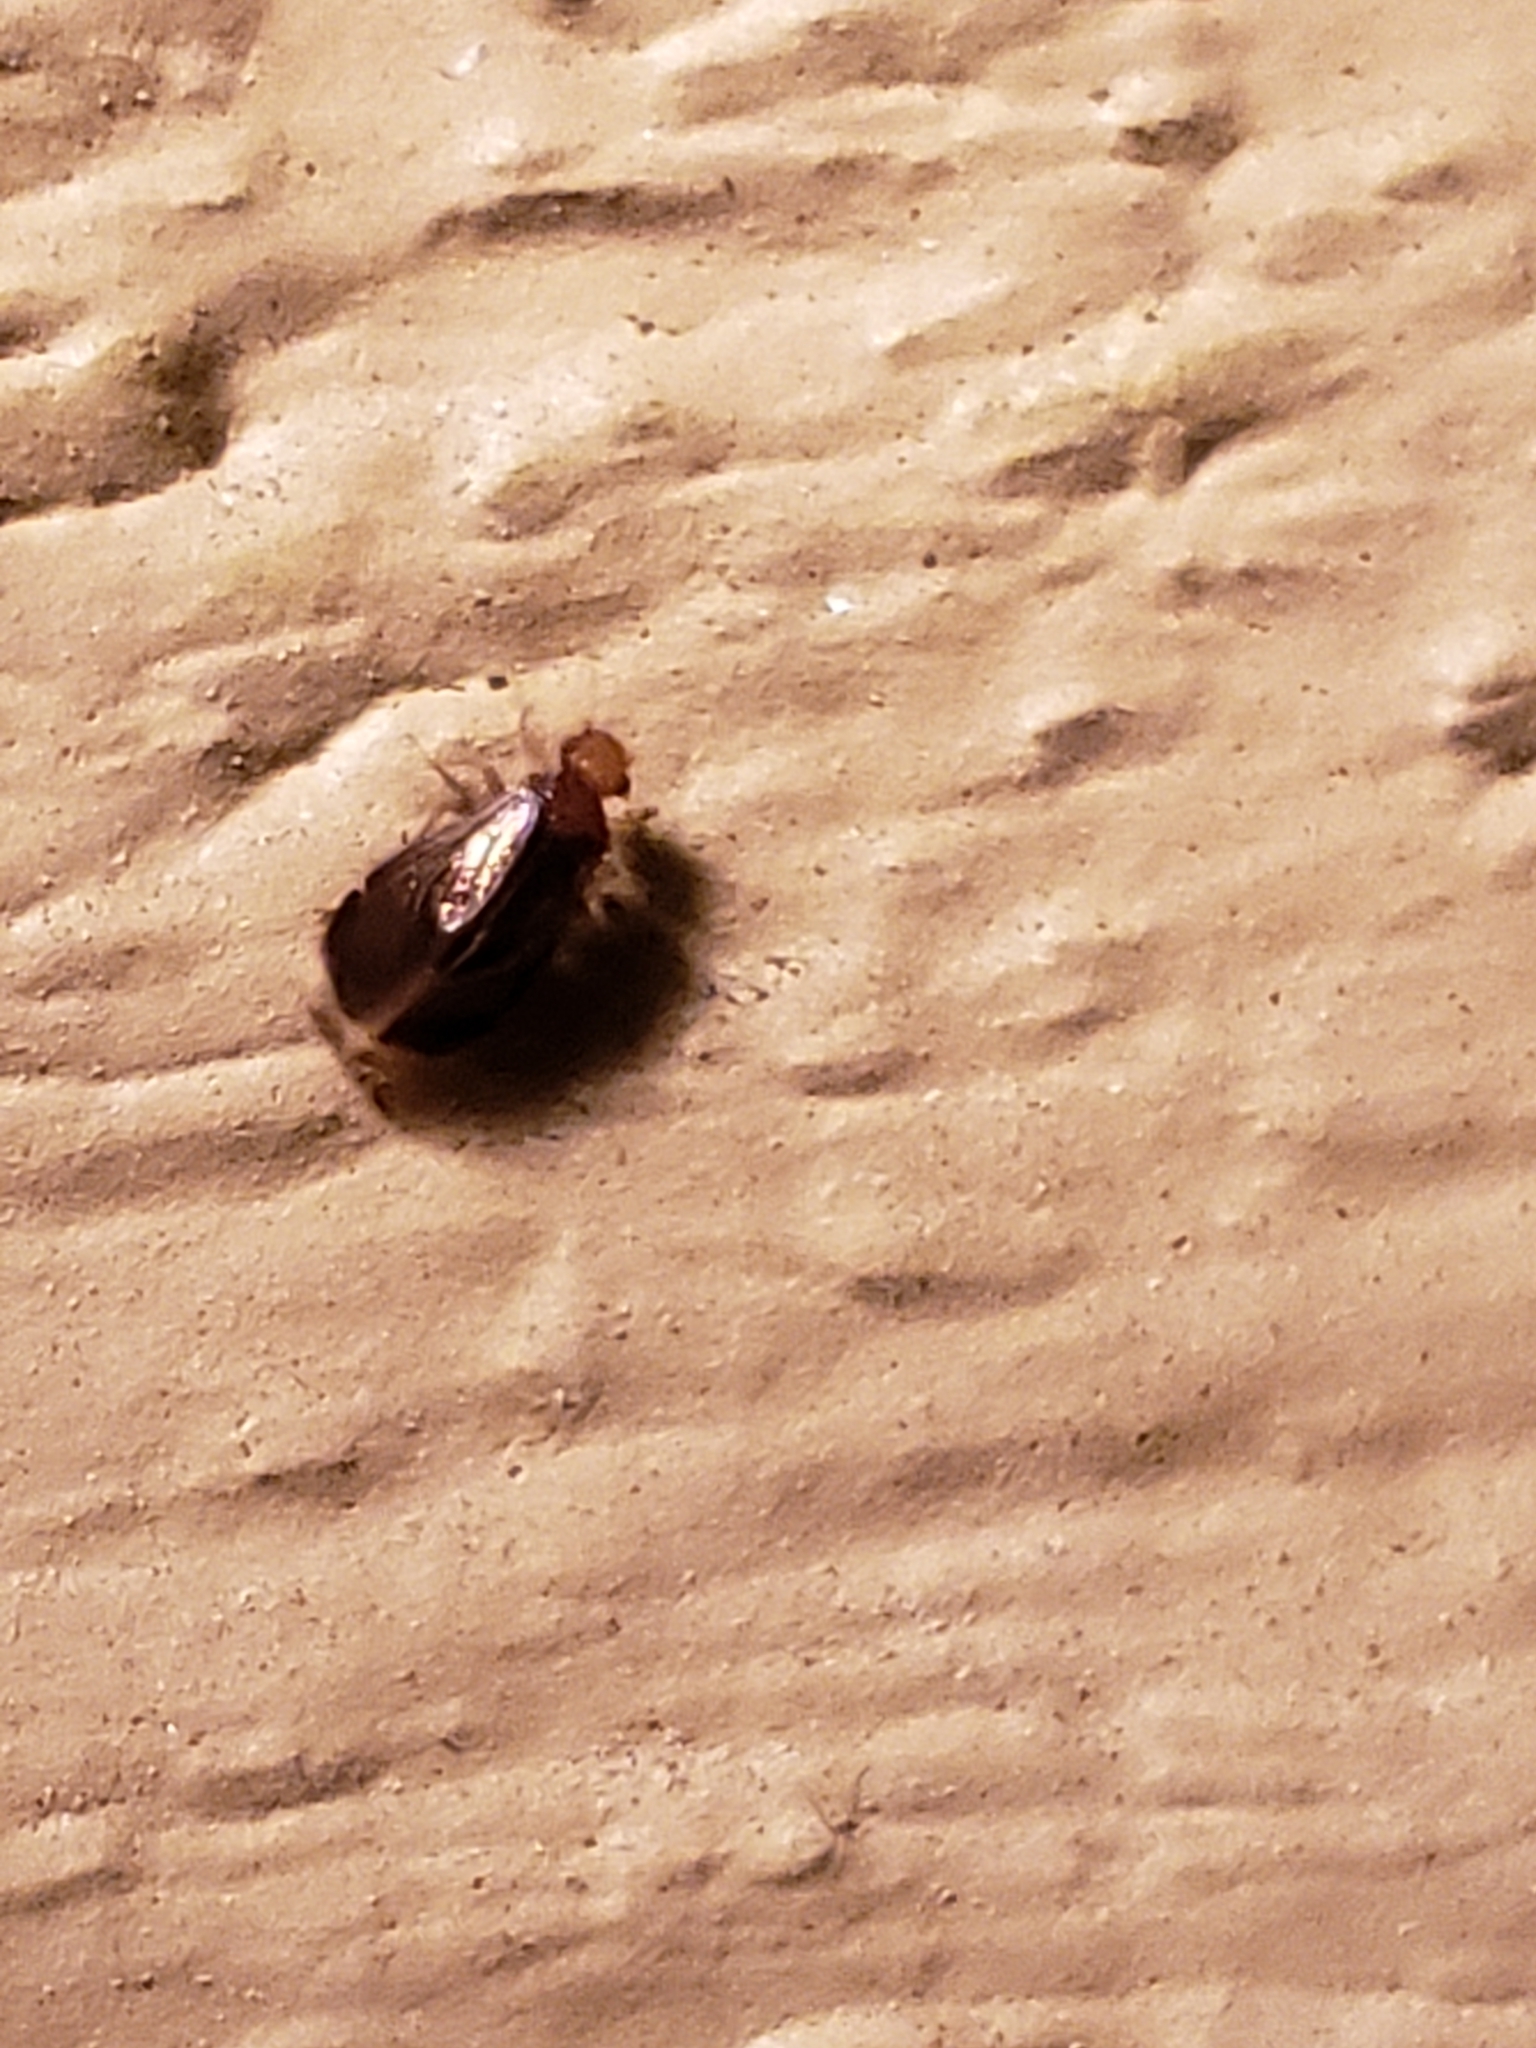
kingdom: Animalia
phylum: Arthropoda
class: Insecta
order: Psocodea
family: Amphipsocidae
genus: Polypsocus
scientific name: Polypsocus corruptus
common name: Corrupt barklouse
